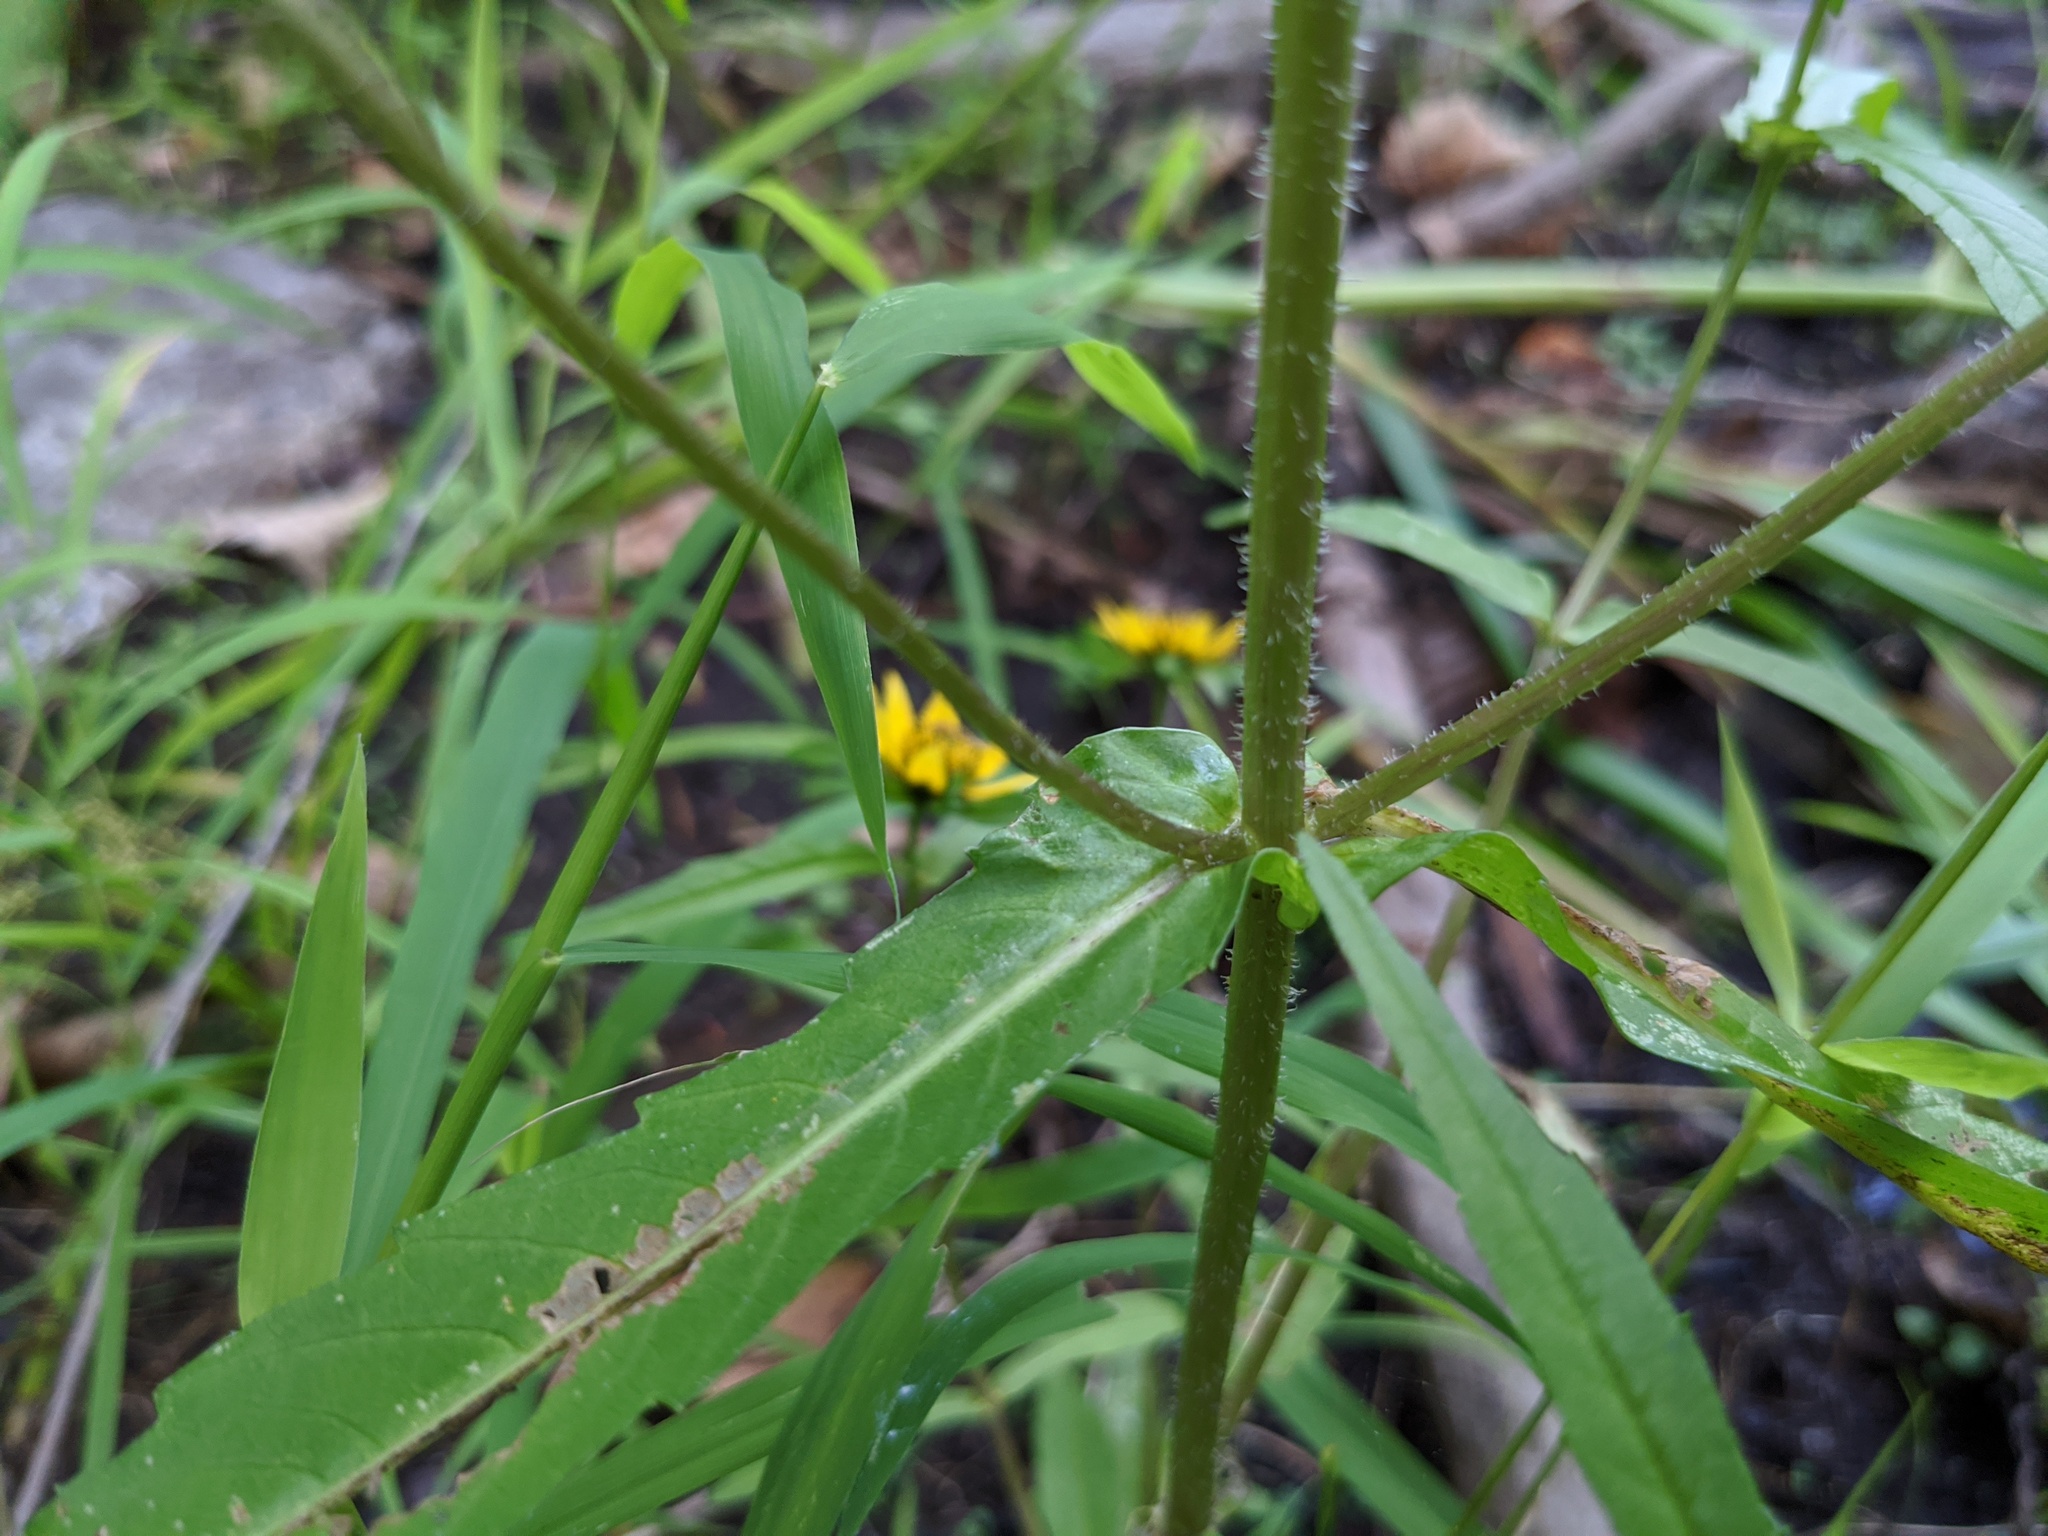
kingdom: Plantae
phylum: Tracheophyta
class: Magnoliopsida
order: Asterales
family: Asteraceae
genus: Bidens
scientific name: Bidens cernua
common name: Nodding bur-marigold
